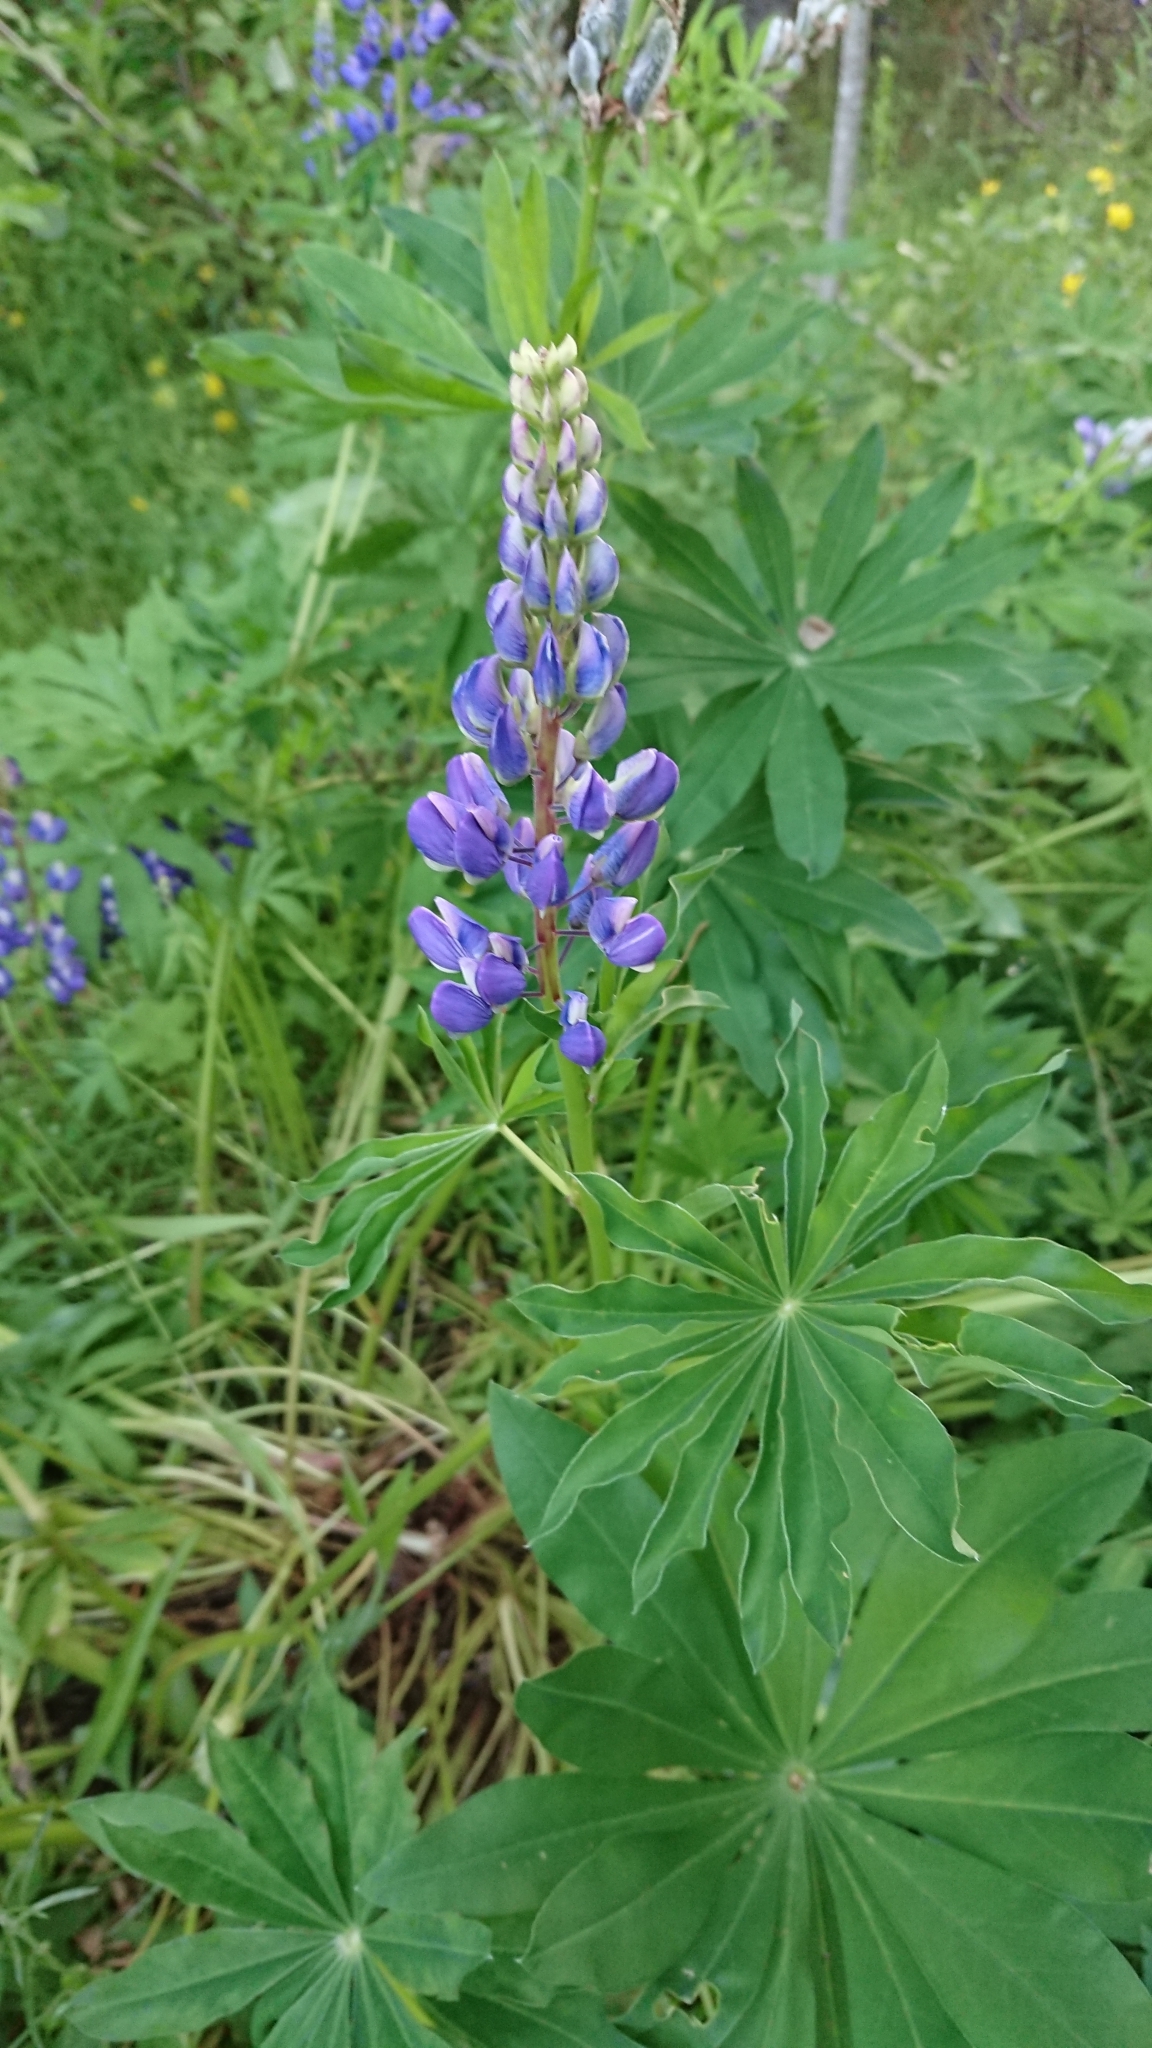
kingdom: Plantae
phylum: Tracheophyta
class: Magnoliopsida
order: Fabales
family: Fabaceae
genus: Lupinus
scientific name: Lupinus polyphyllus
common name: Garden lupin
